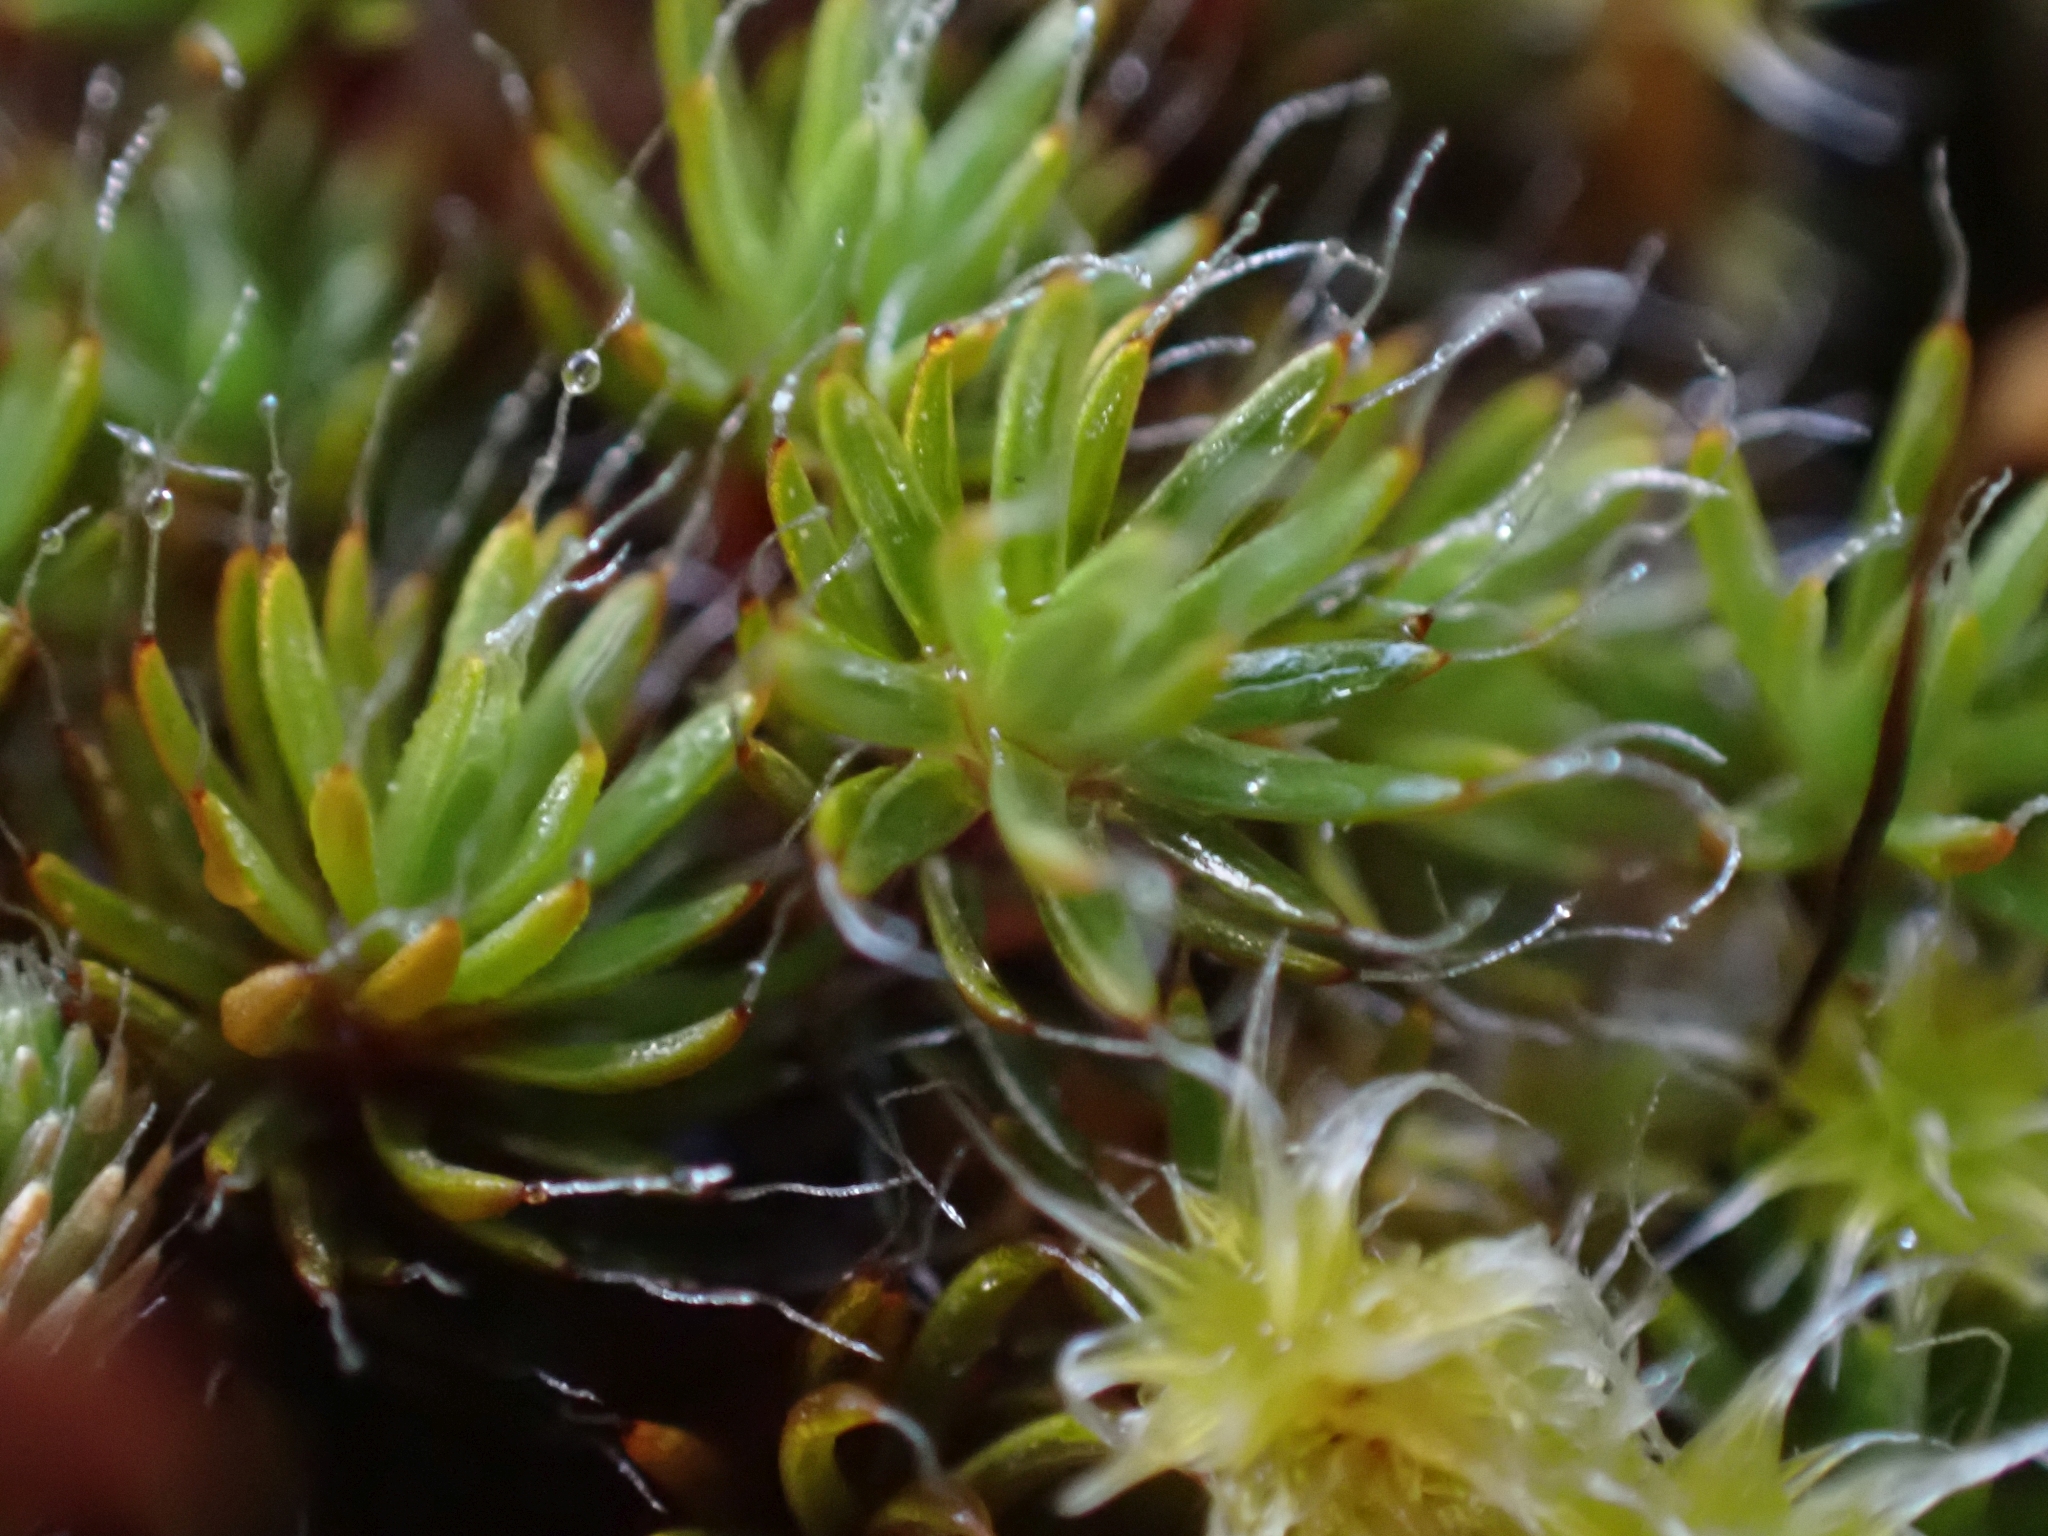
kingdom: Plantae
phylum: Bryophyta
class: Polytrichopsida
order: Polytrichales
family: Polytrichaceae
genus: Polytrichum
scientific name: Polytrichum piliferum
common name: Bristly haircap
